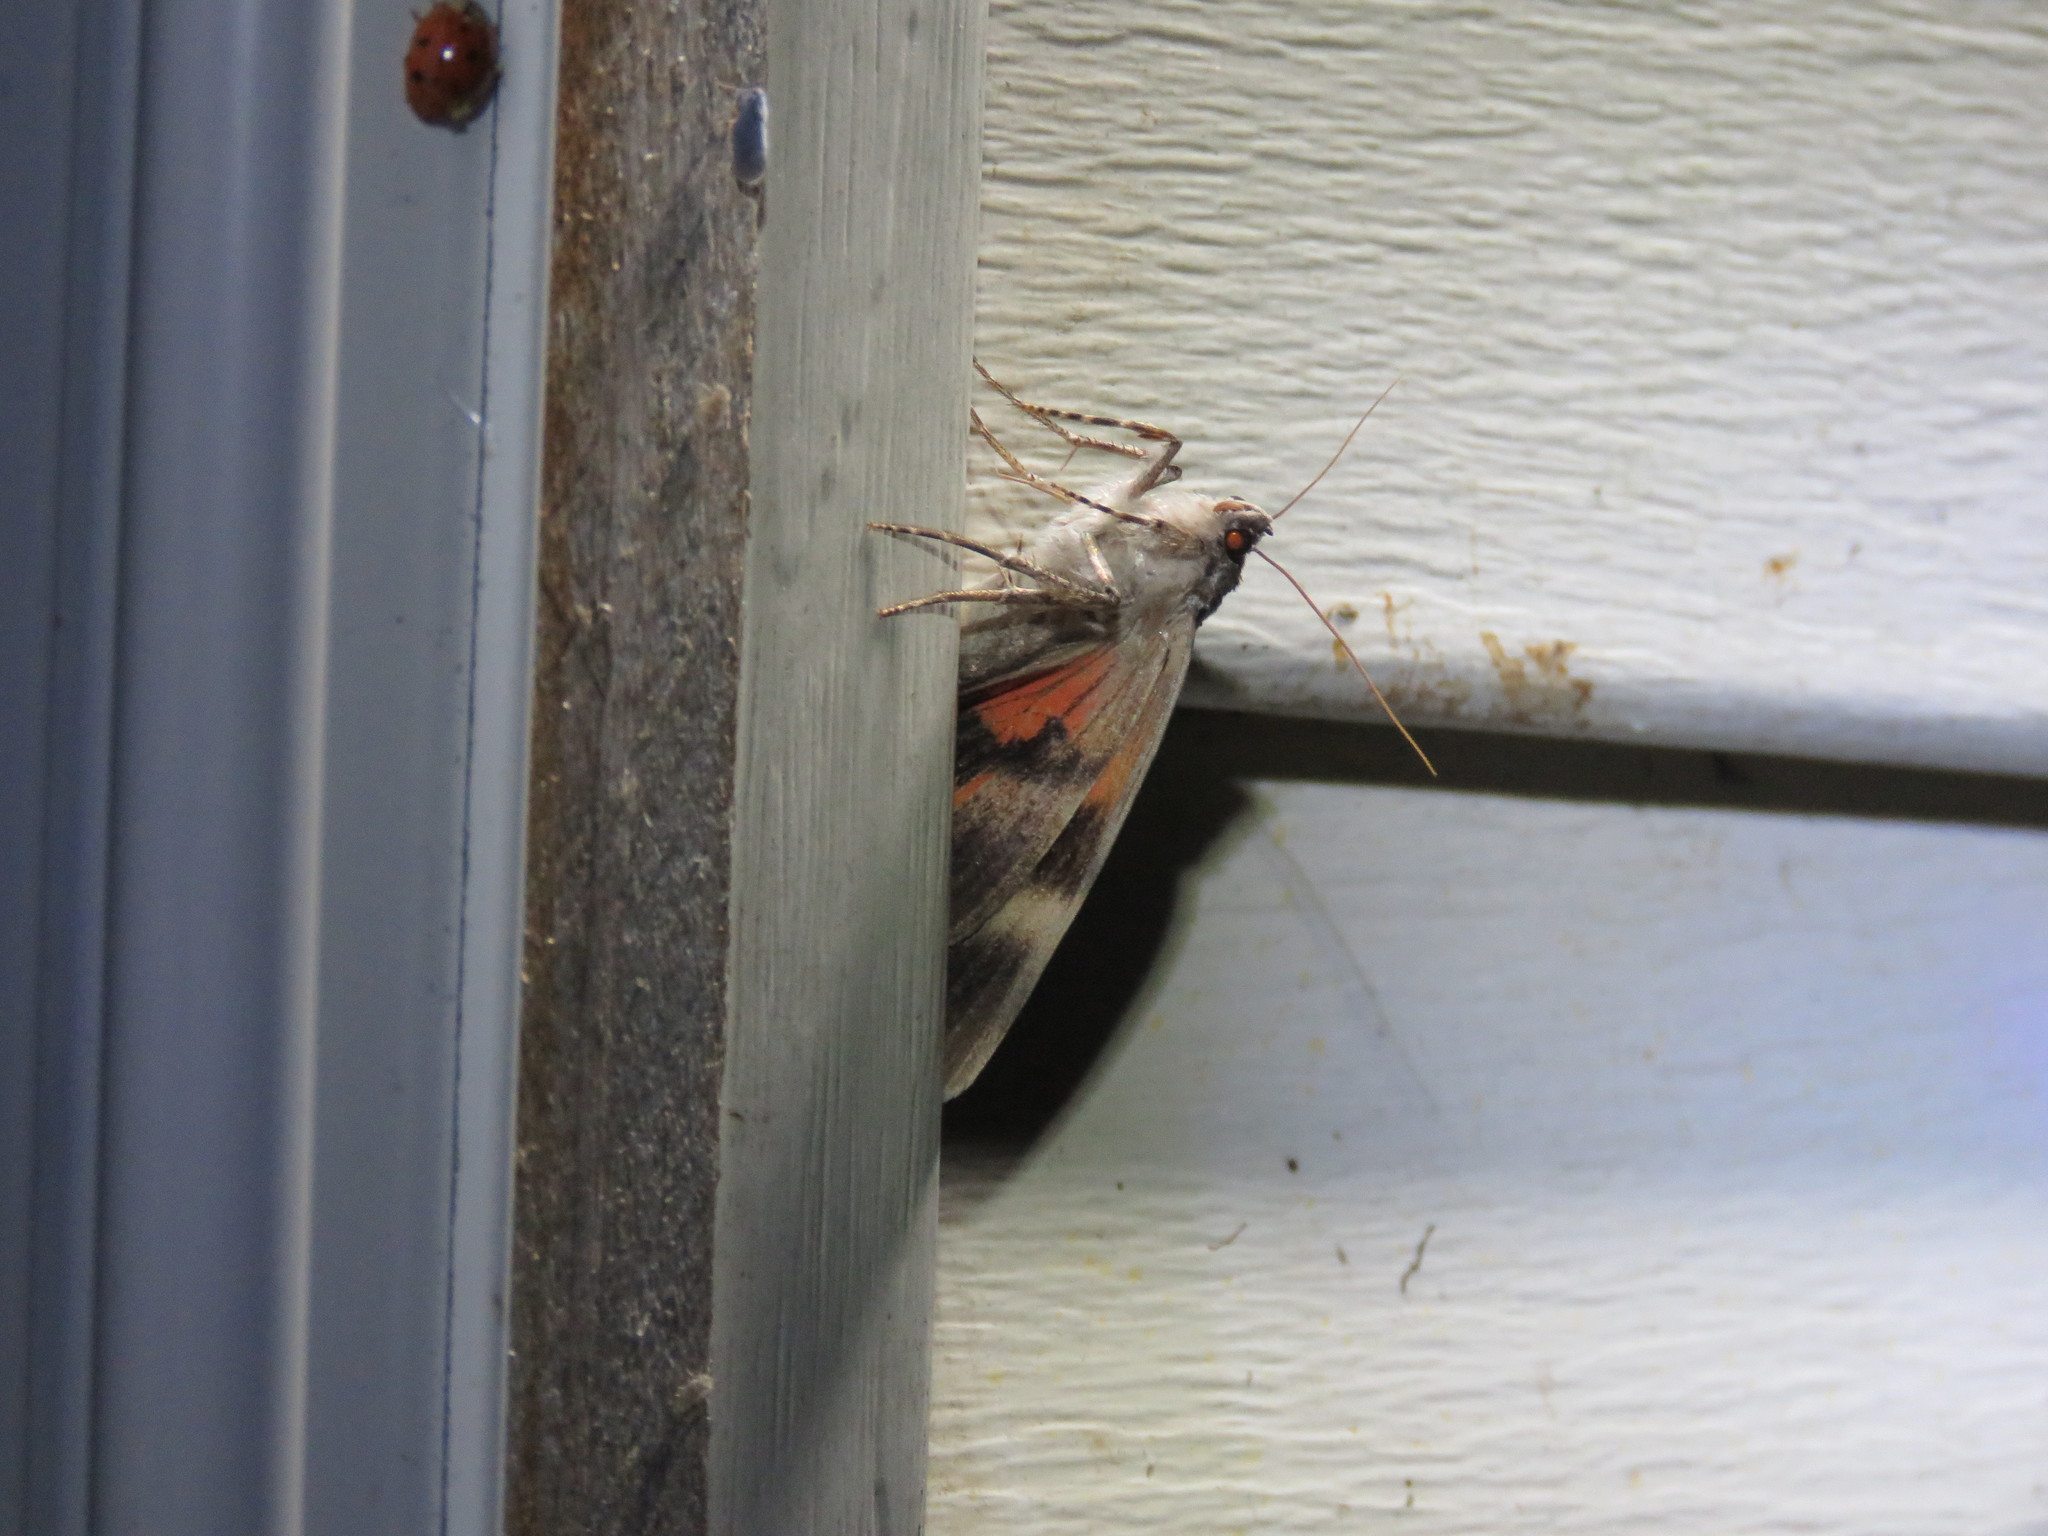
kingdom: Animalia
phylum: Arthropoda
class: Insecta
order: Lepidoptera
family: Erebidae
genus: Catocala
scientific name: Catocala ultronia
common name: Ultronia underwing
